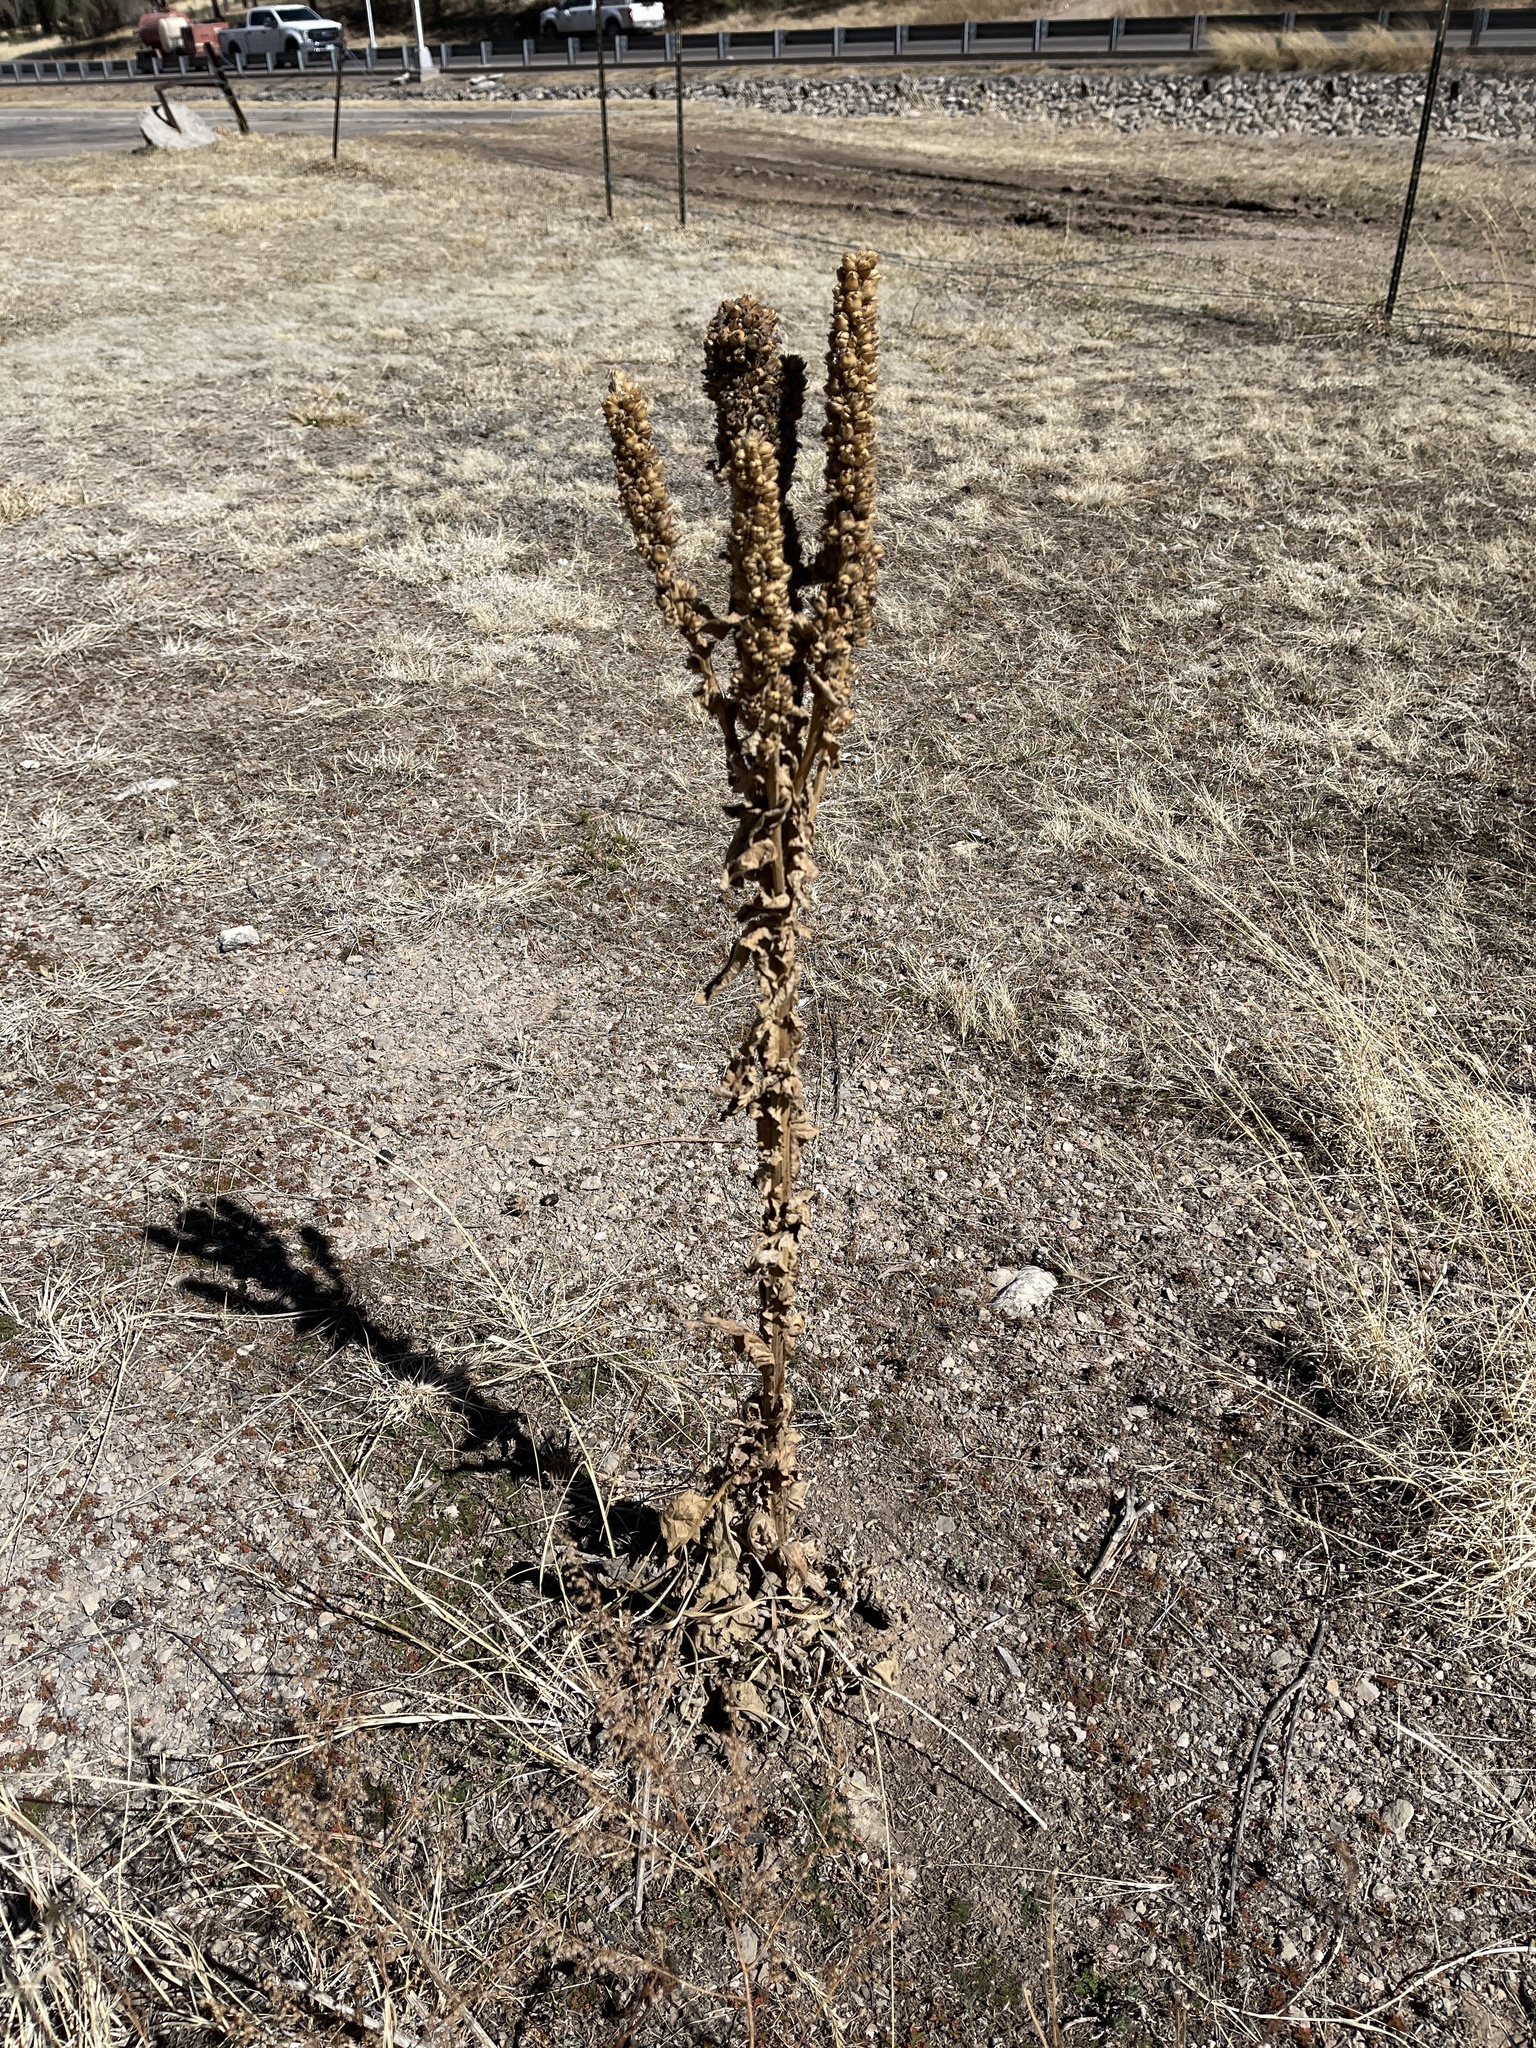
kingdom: Plantae
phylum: Tracheophyta
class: Magnoliopsida
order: Lamiales
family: Scrophulariaceae
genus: Verbascum
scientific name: Verbascum thapsus
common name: Common mullein
